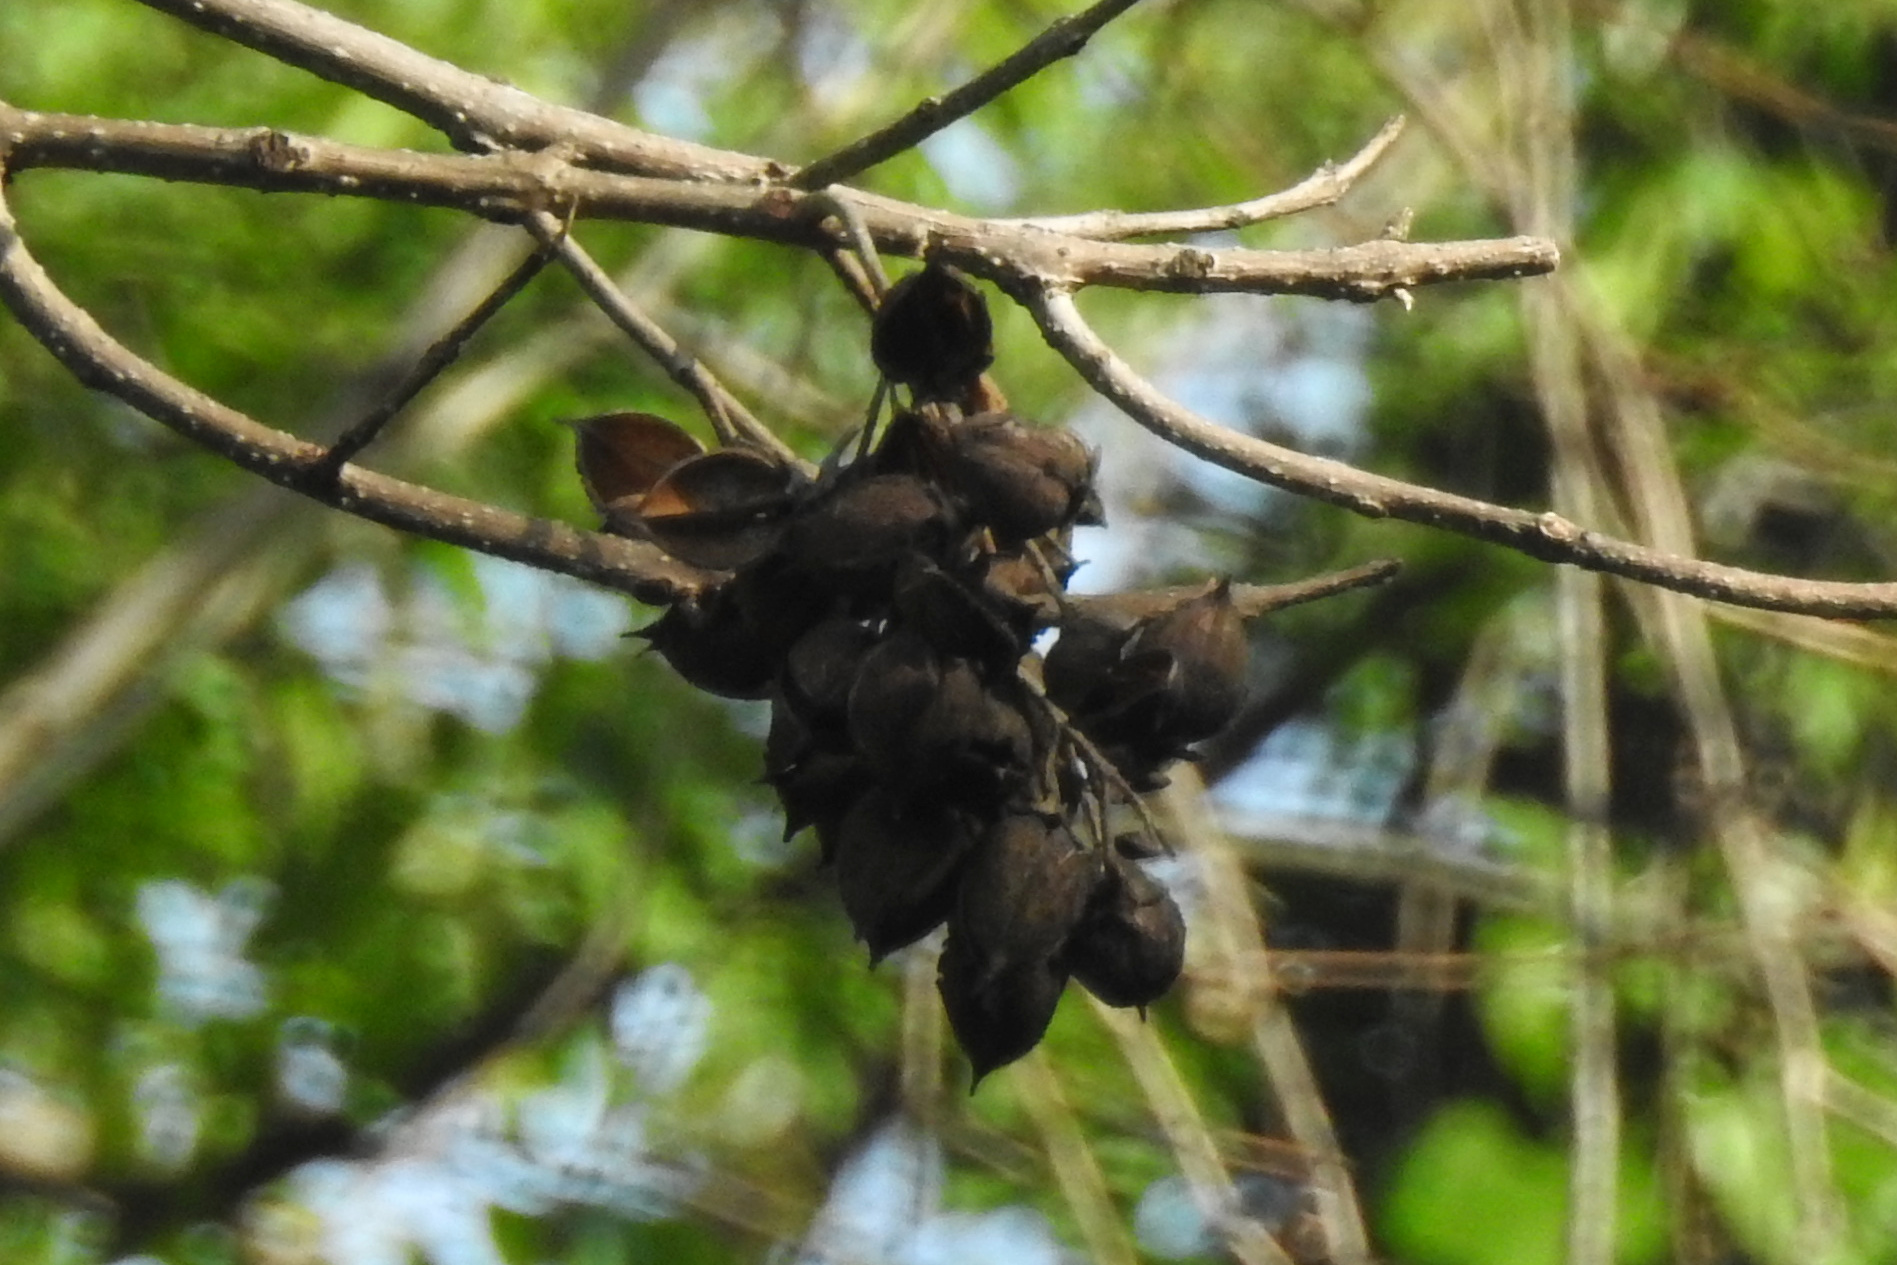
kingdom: Plantae
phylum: Tracheophyta
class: Magnoliopsida
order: Lamiales
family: Paulowniaceae
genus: Paulownia
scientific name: Paulownia tomentosa
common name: Foxglove-tree
